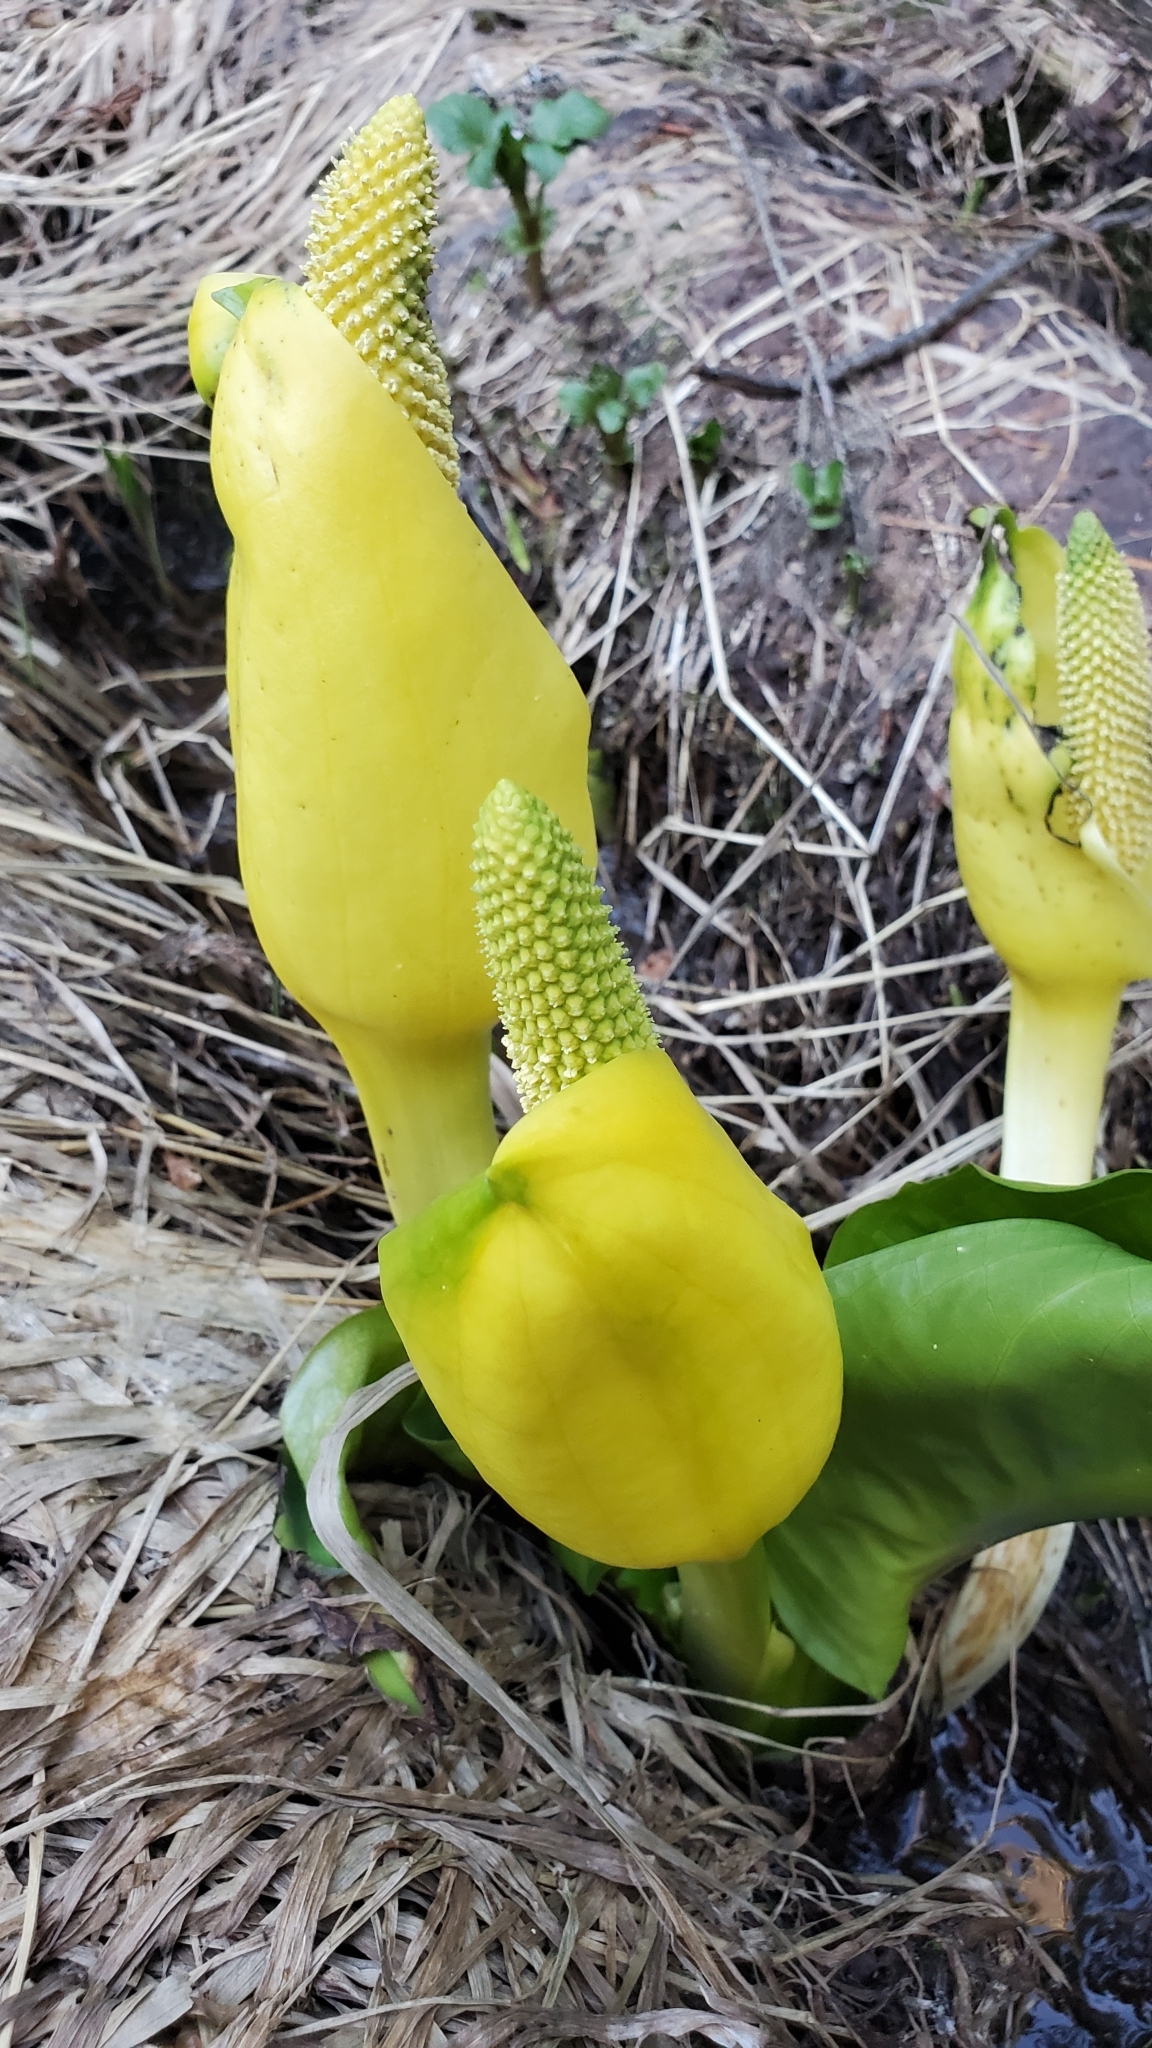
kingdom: Plantae
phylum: Tracheophyta
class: Liliopsida
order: Alismatales
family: Araceae
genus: Lysichiton
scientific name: Lysichiton americanus
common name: American skunk cabbage
